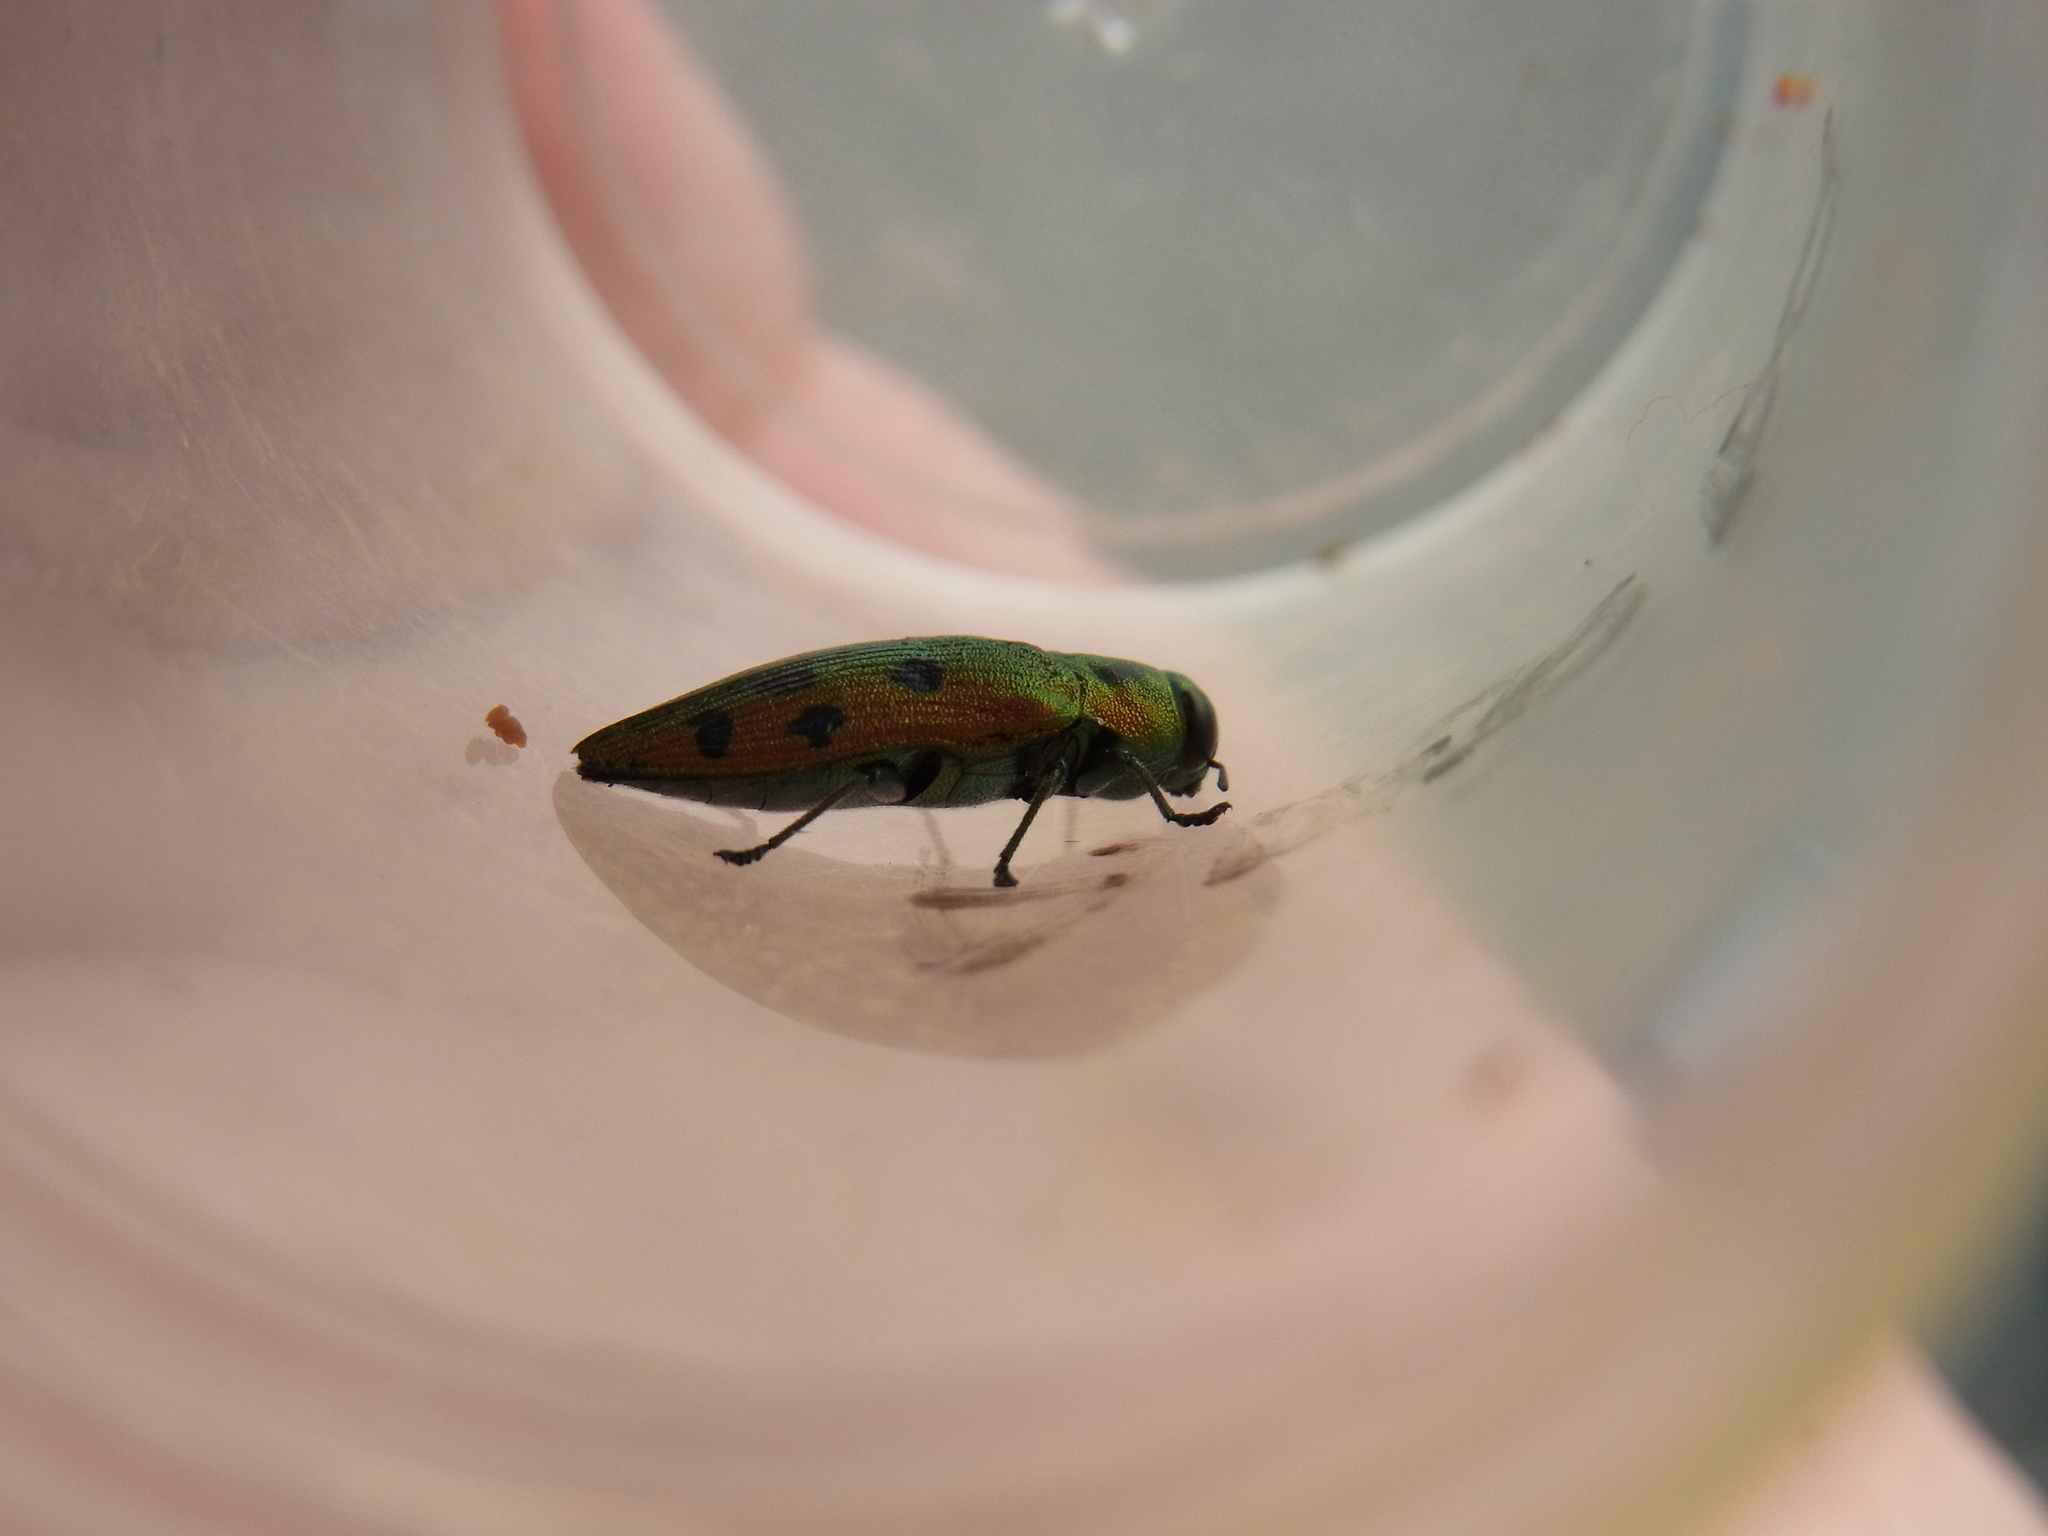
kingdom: Animalia
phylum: Arthropoda
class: Insecta
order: Coleoptera
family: Buprestidae
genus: Lamprodila
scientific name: Lamprodila vivata
